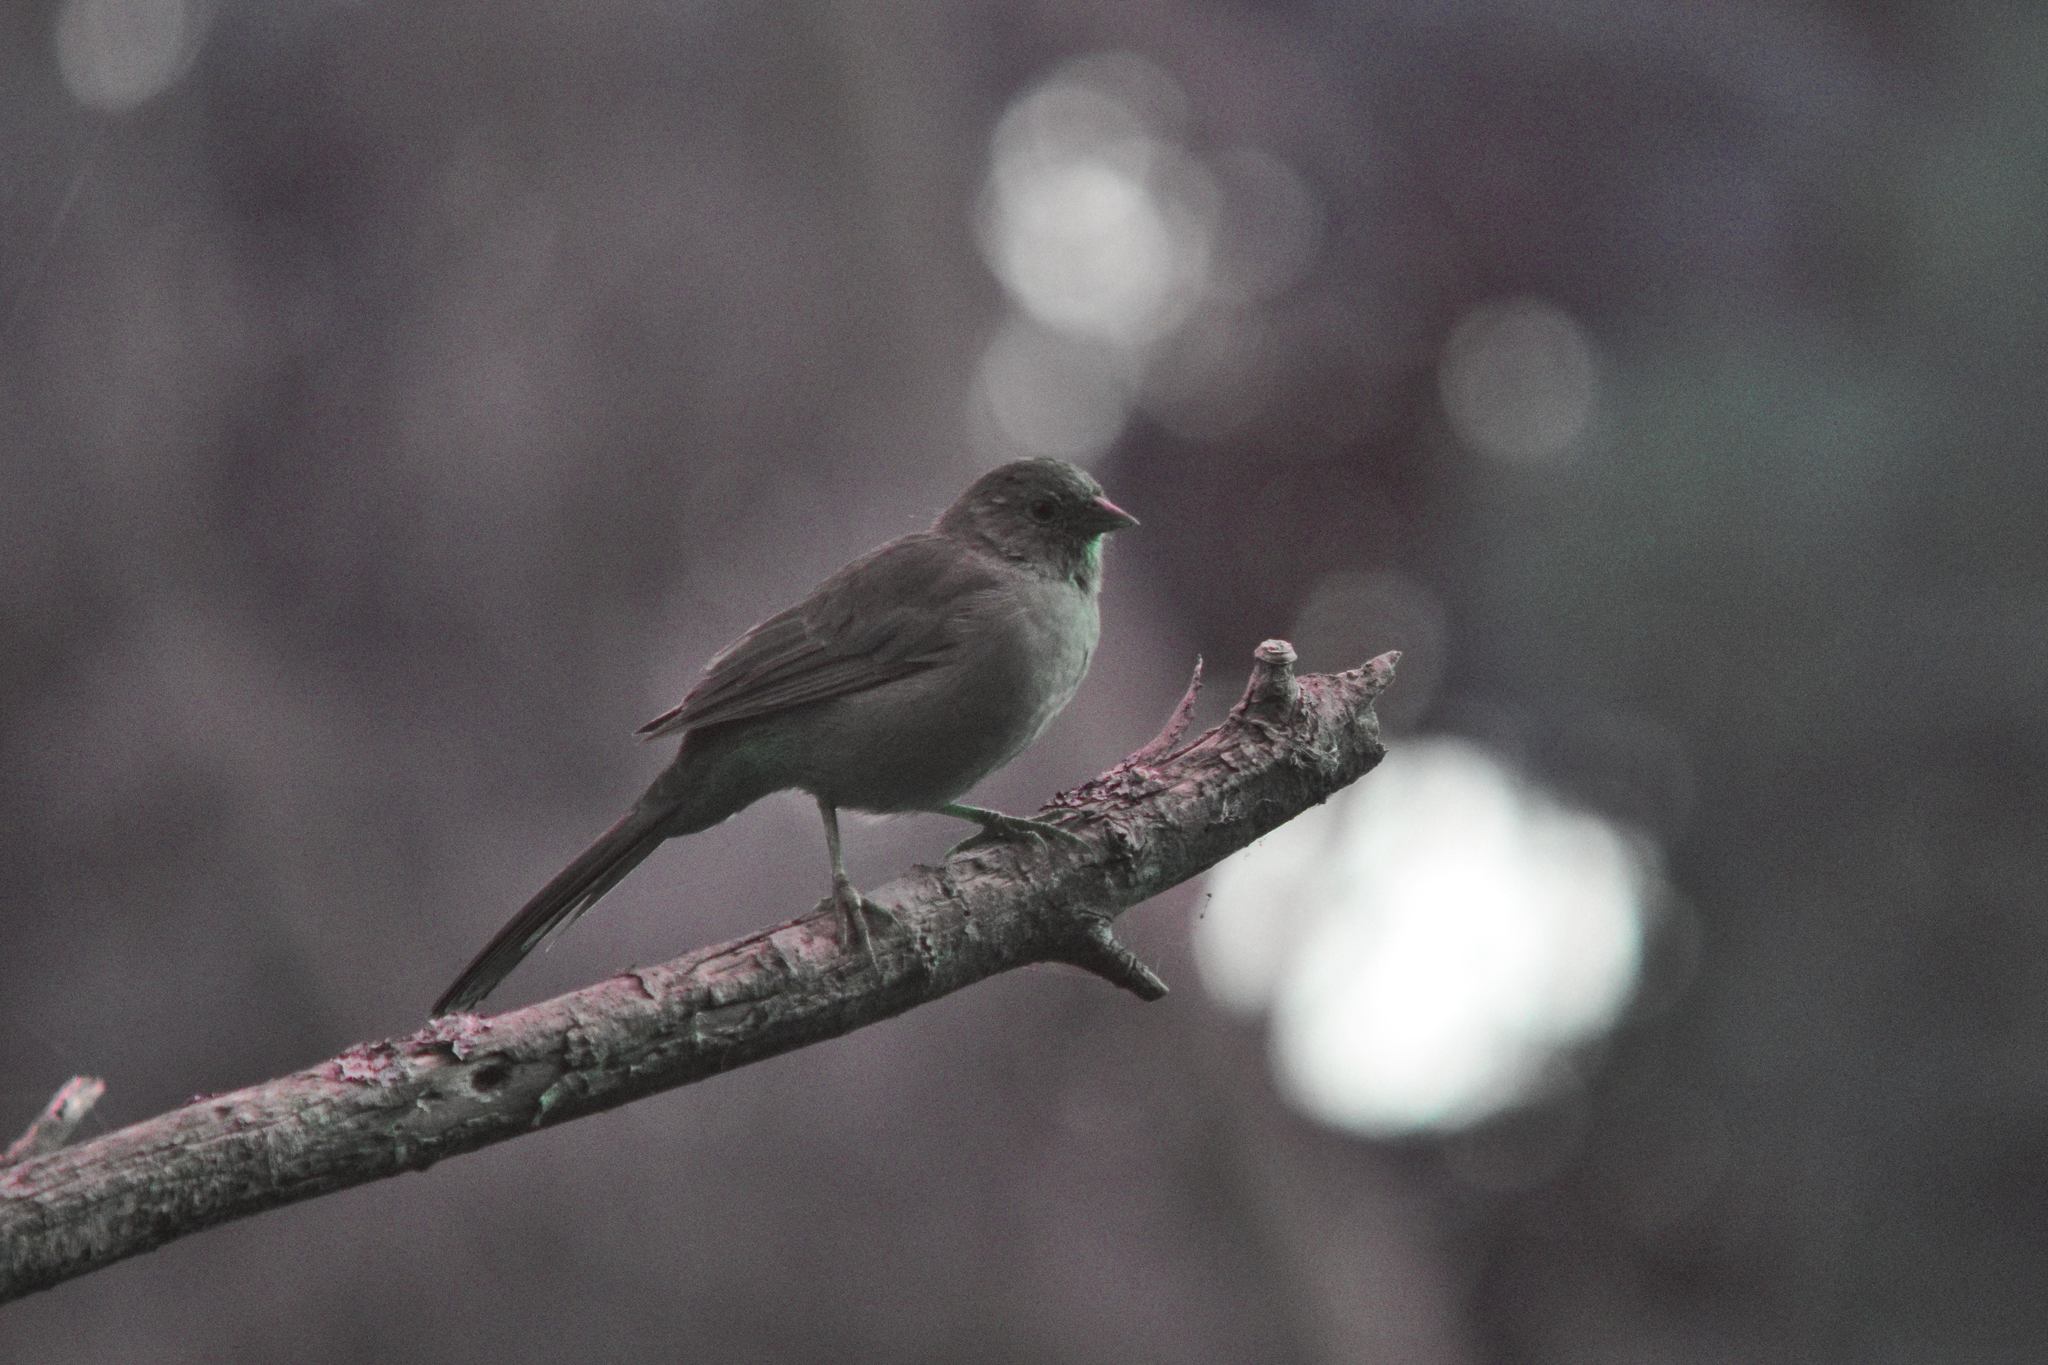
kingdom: Animalia
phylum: Chordata
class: Aves
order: Passeriformes
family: Passerellidae
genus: Melozone
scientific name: Melozone crissalis
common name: California towhee
